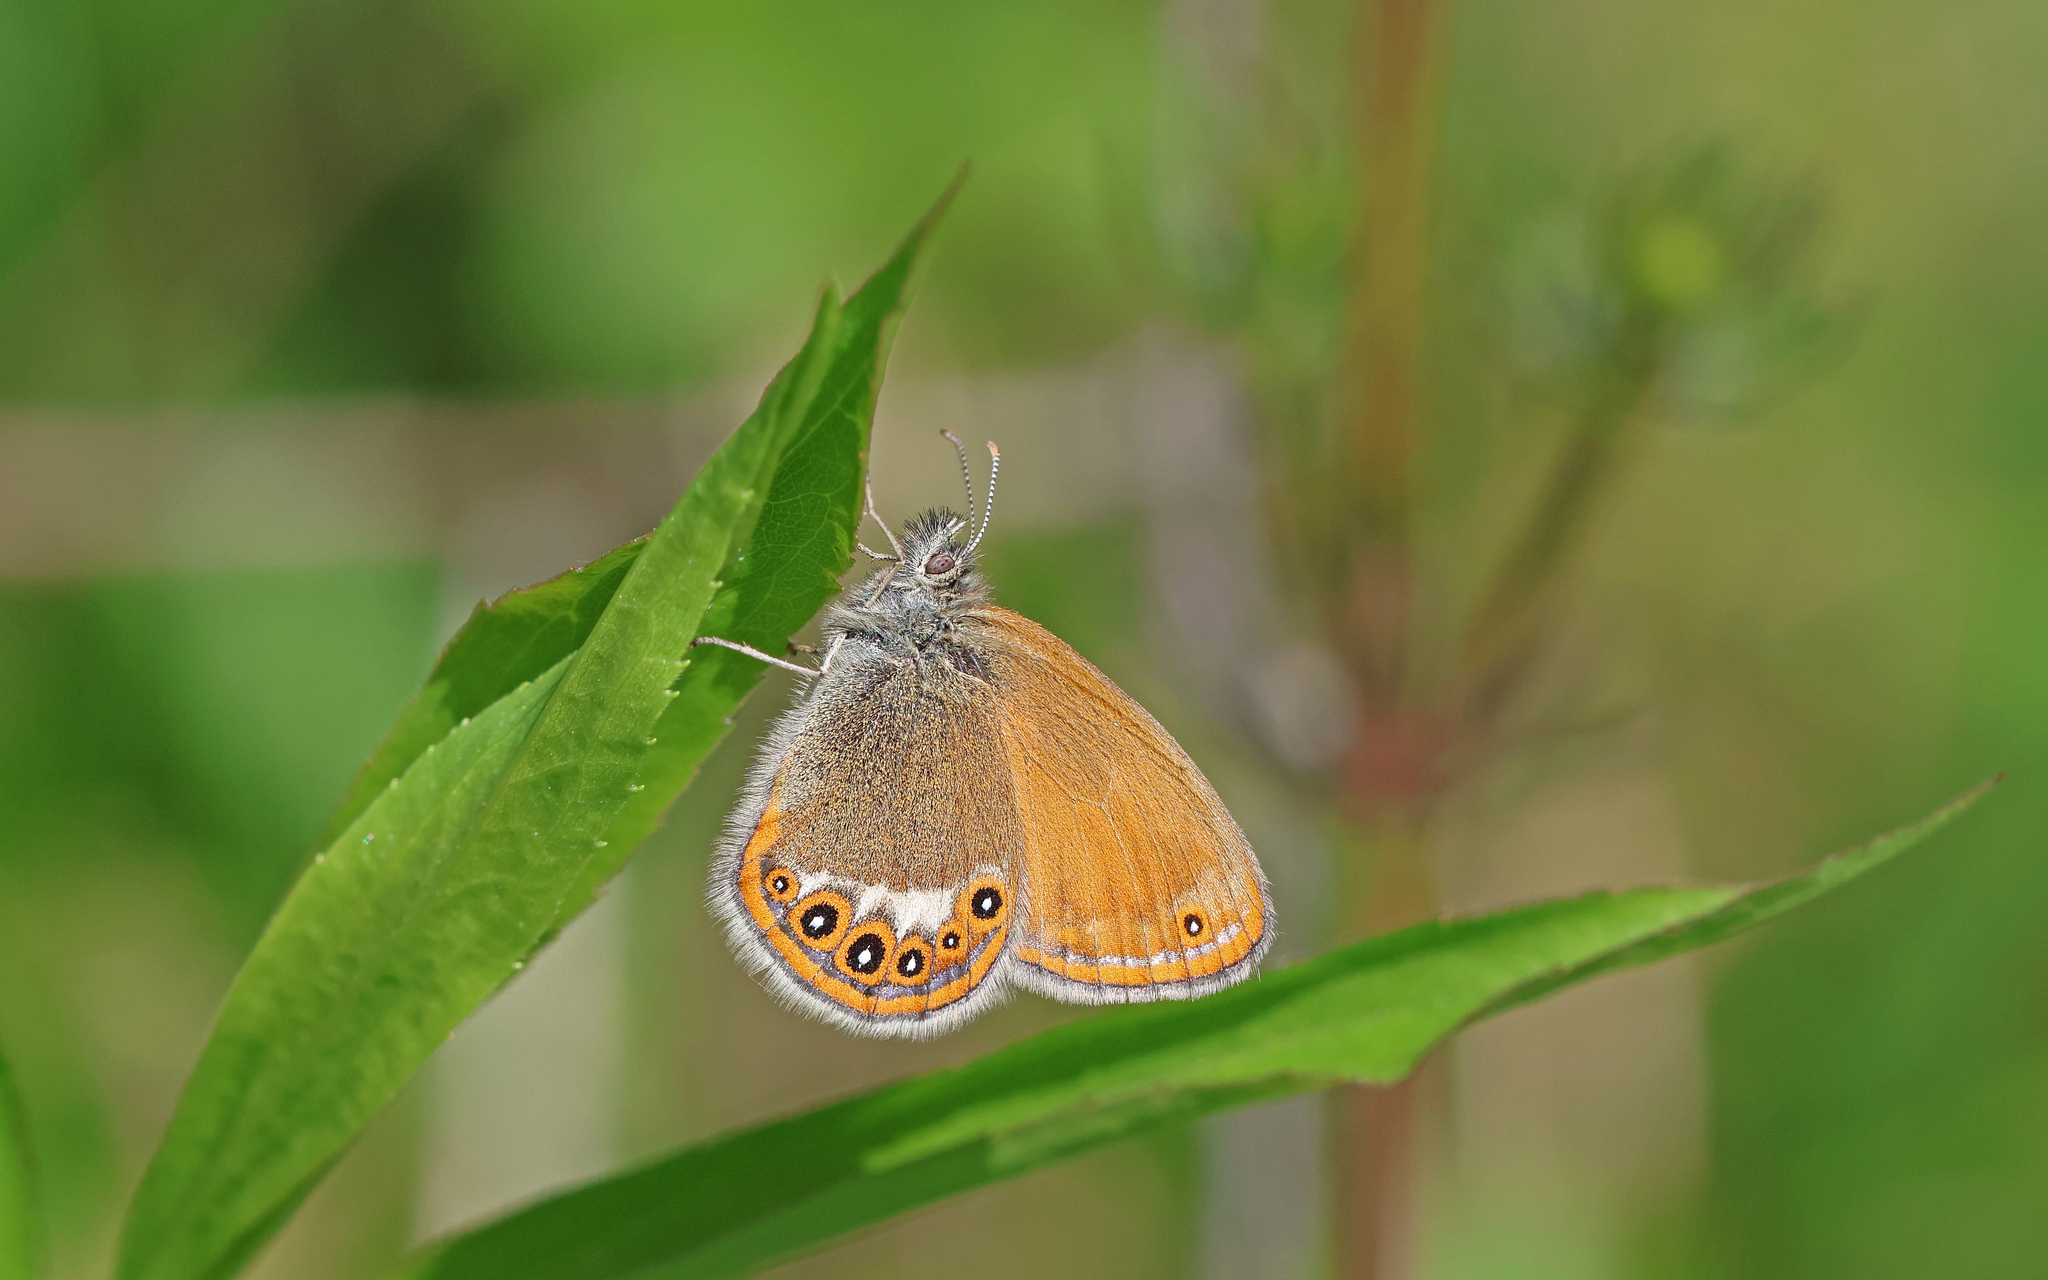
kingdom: Animalia
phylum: Arthropoda
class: Insecta
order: Lepidoptera
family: Nymphalidae
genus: Coenonympha
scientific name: Coenonympha hero
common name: Scarce heath
